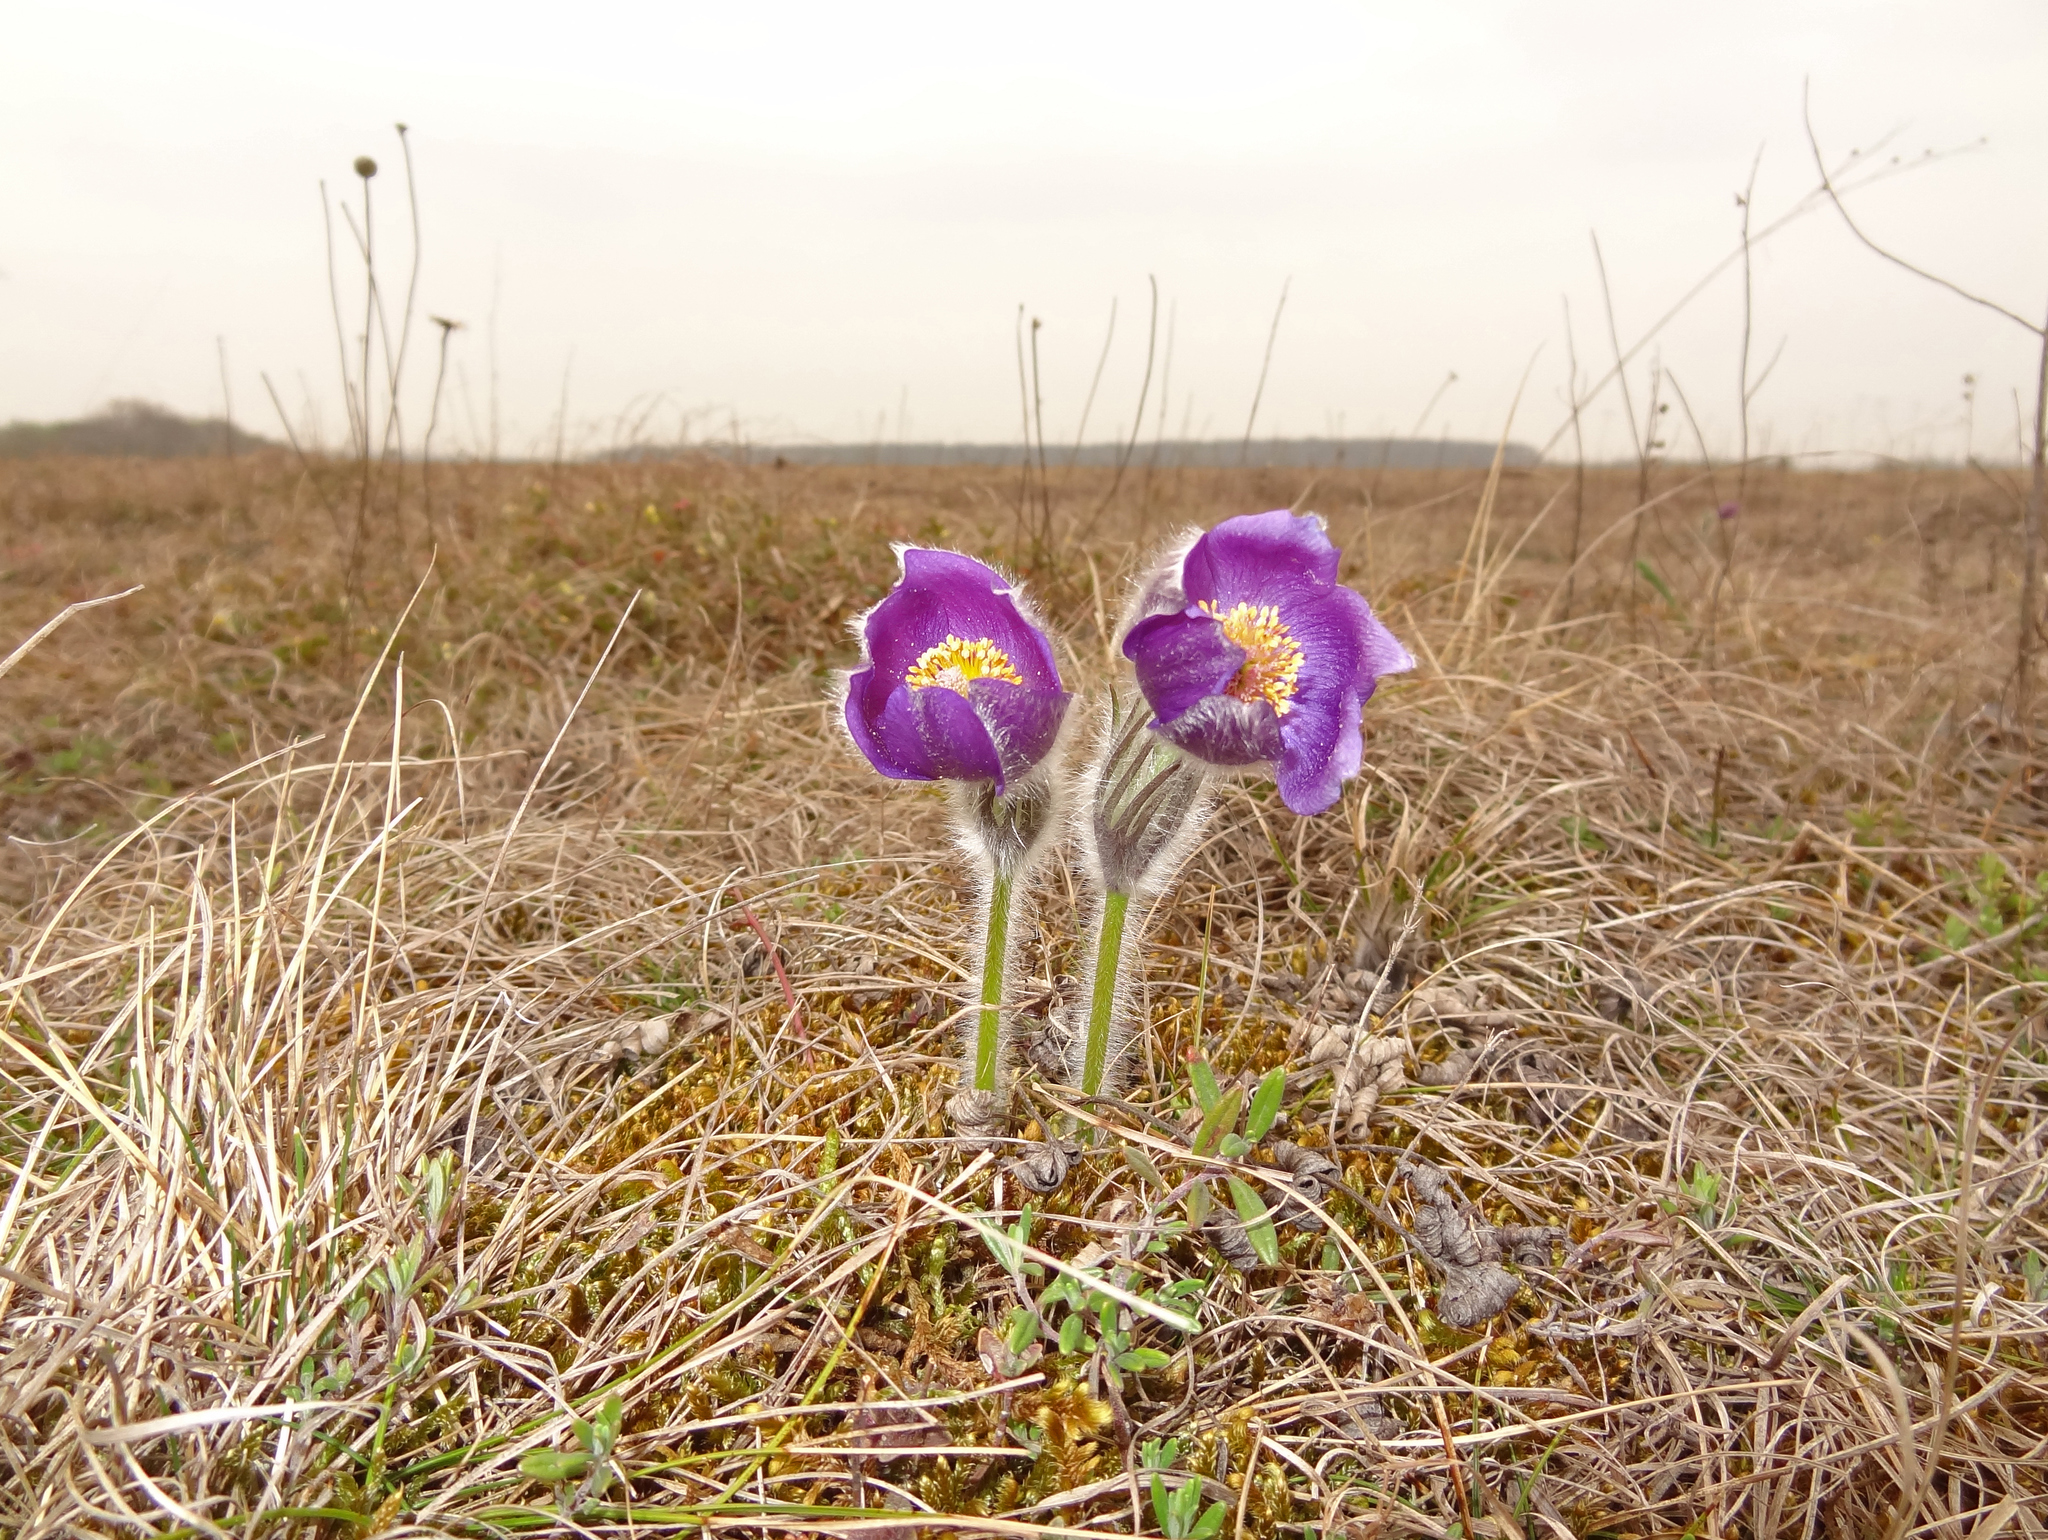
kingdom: Plantae
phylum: Tracheophyta
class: Magnoliopsida
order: Ranunculales
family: Ranunculaceae
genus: Pulsatilla
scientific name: Pulsatilla patens
